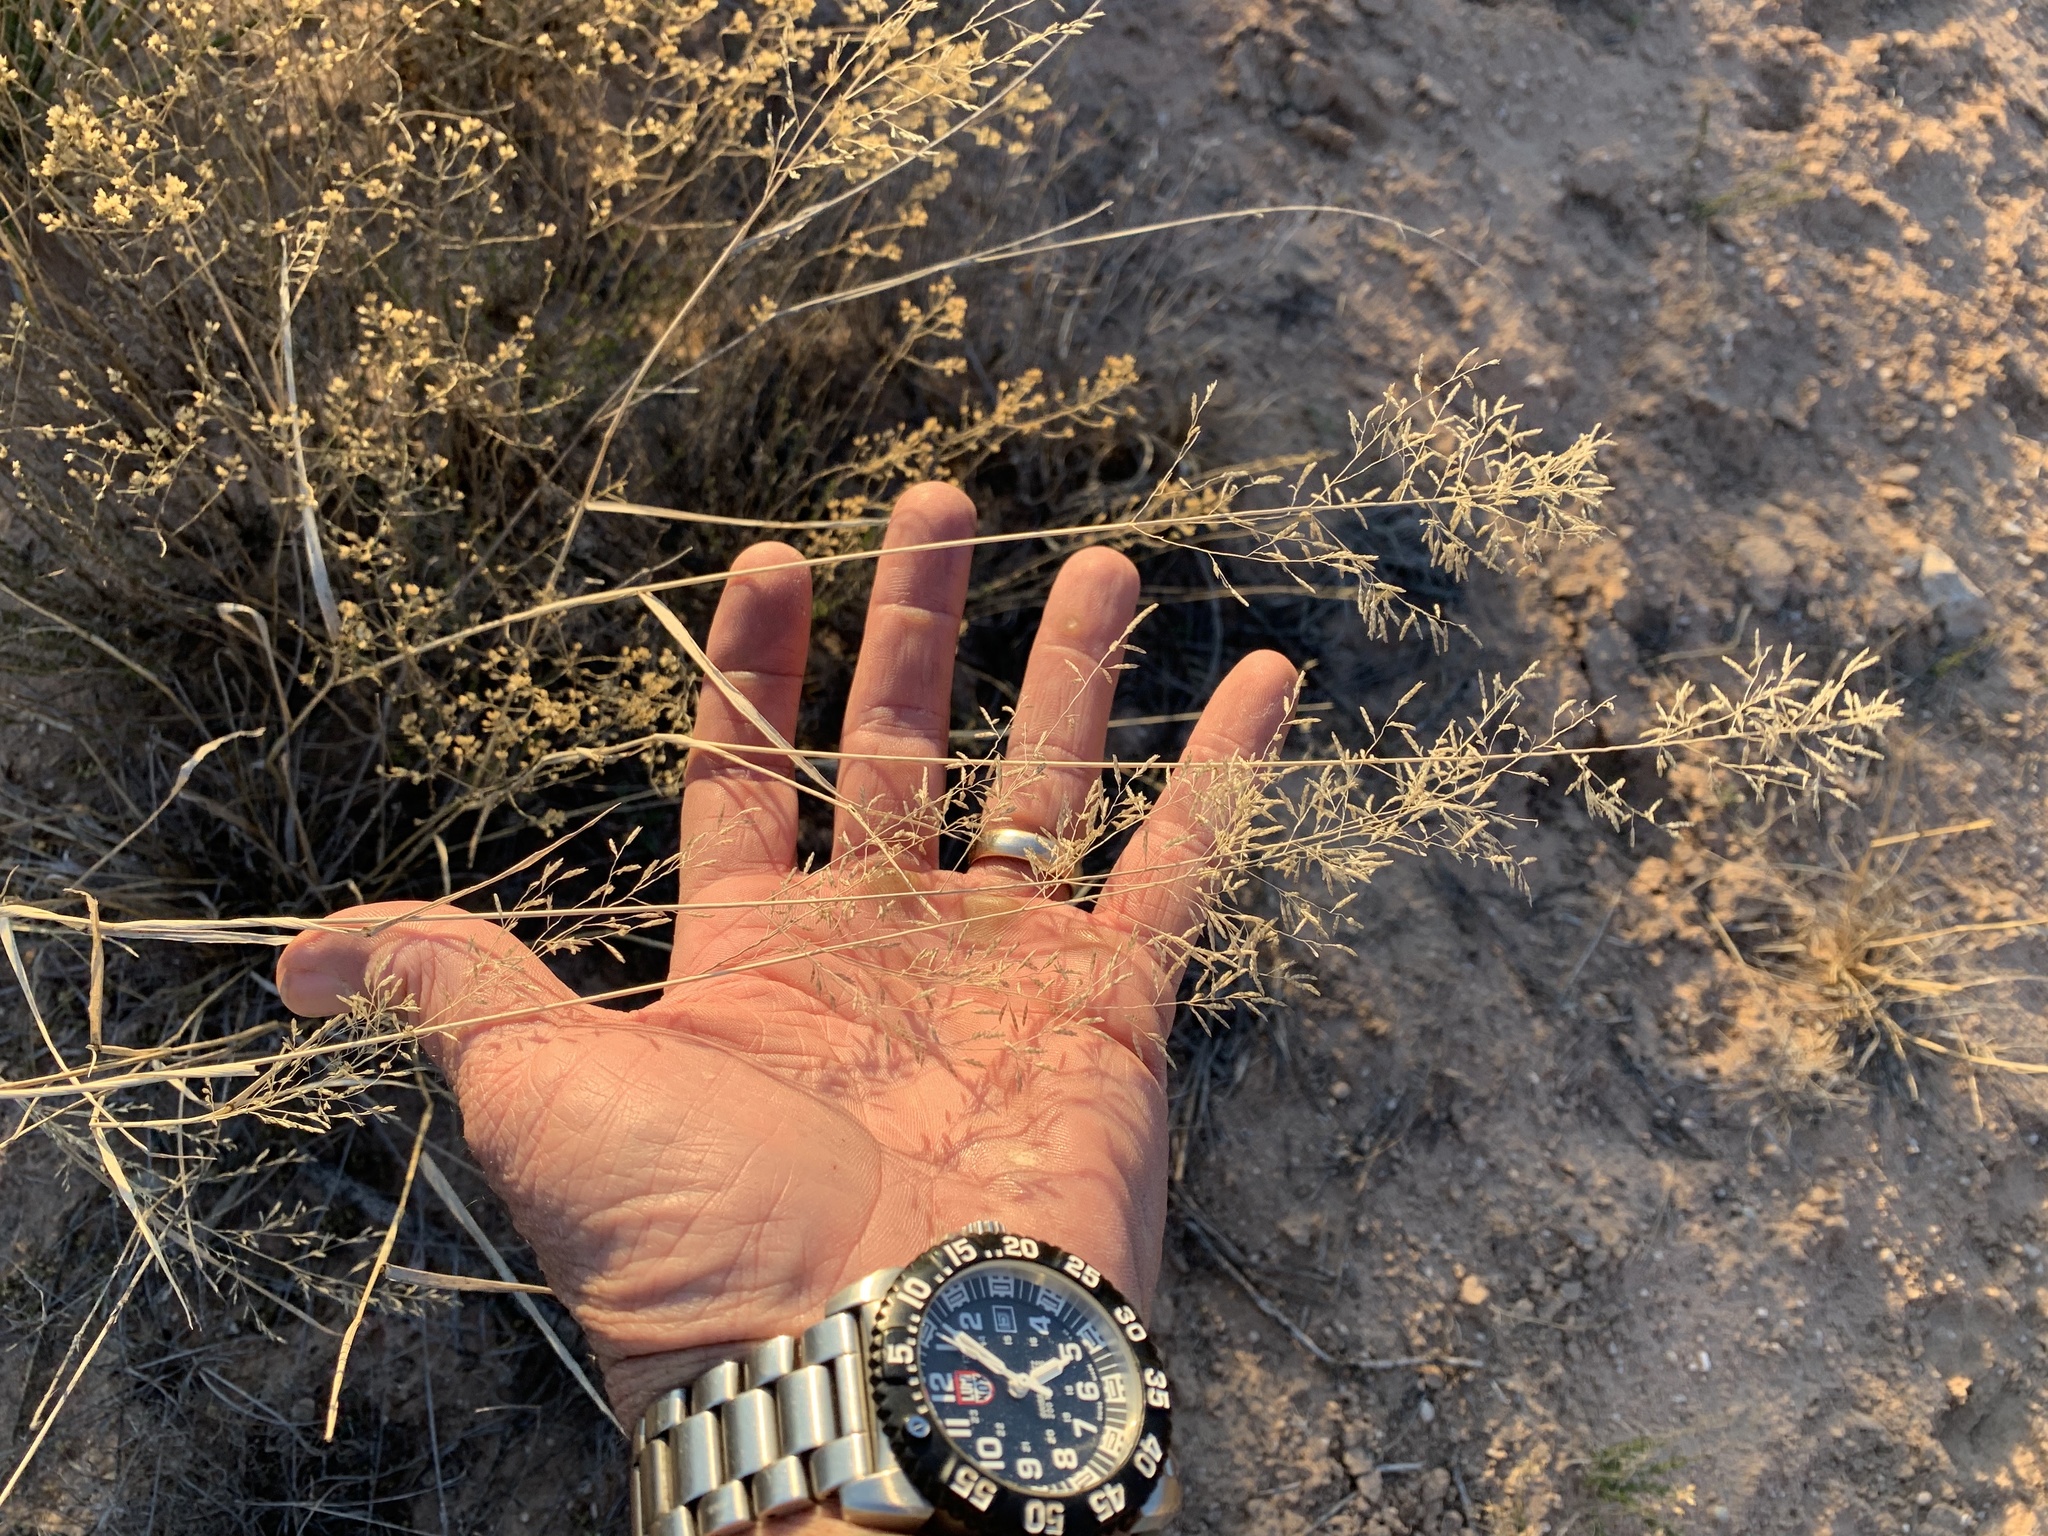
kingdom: Plantae
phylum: Tracheophyta
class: Liliopsida
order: Poales
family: Poaceae
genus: Eragrostis
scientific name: Eragrostis lehmanniana
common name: Lehmann lovegrass
